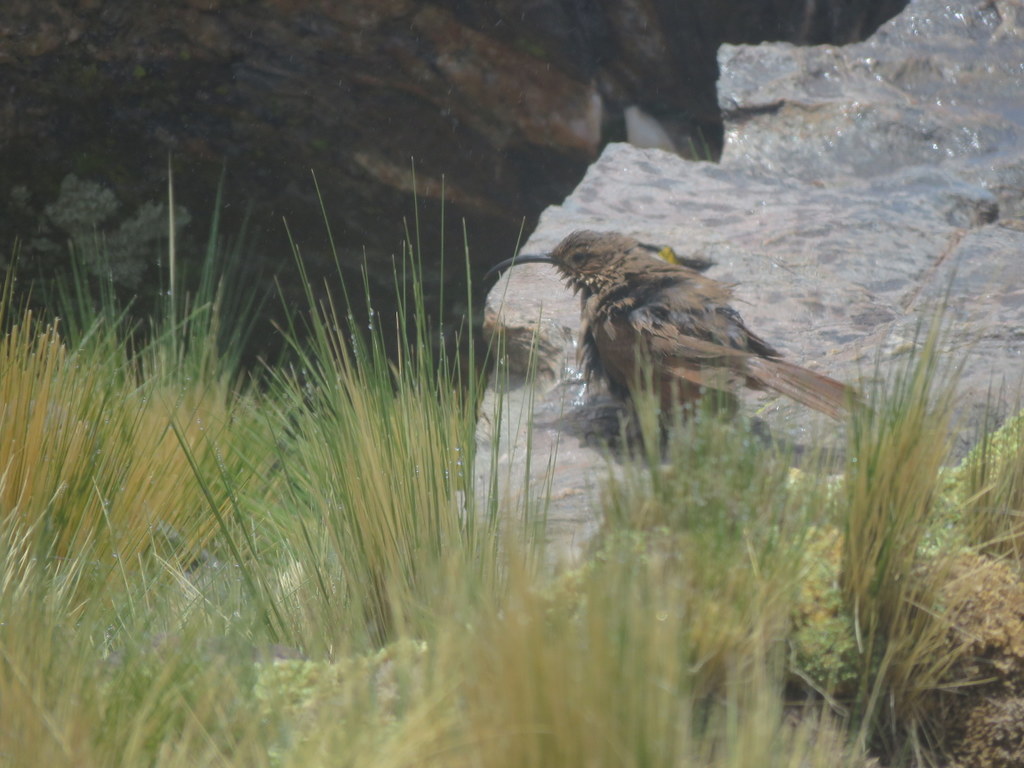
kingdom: Animalia
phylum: Chordata
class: Aves
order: Passeriformes
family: Furnariidae
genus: Upucerthia
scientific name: Upucerthia validirostris
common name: Buff-breasted earthcreeper
